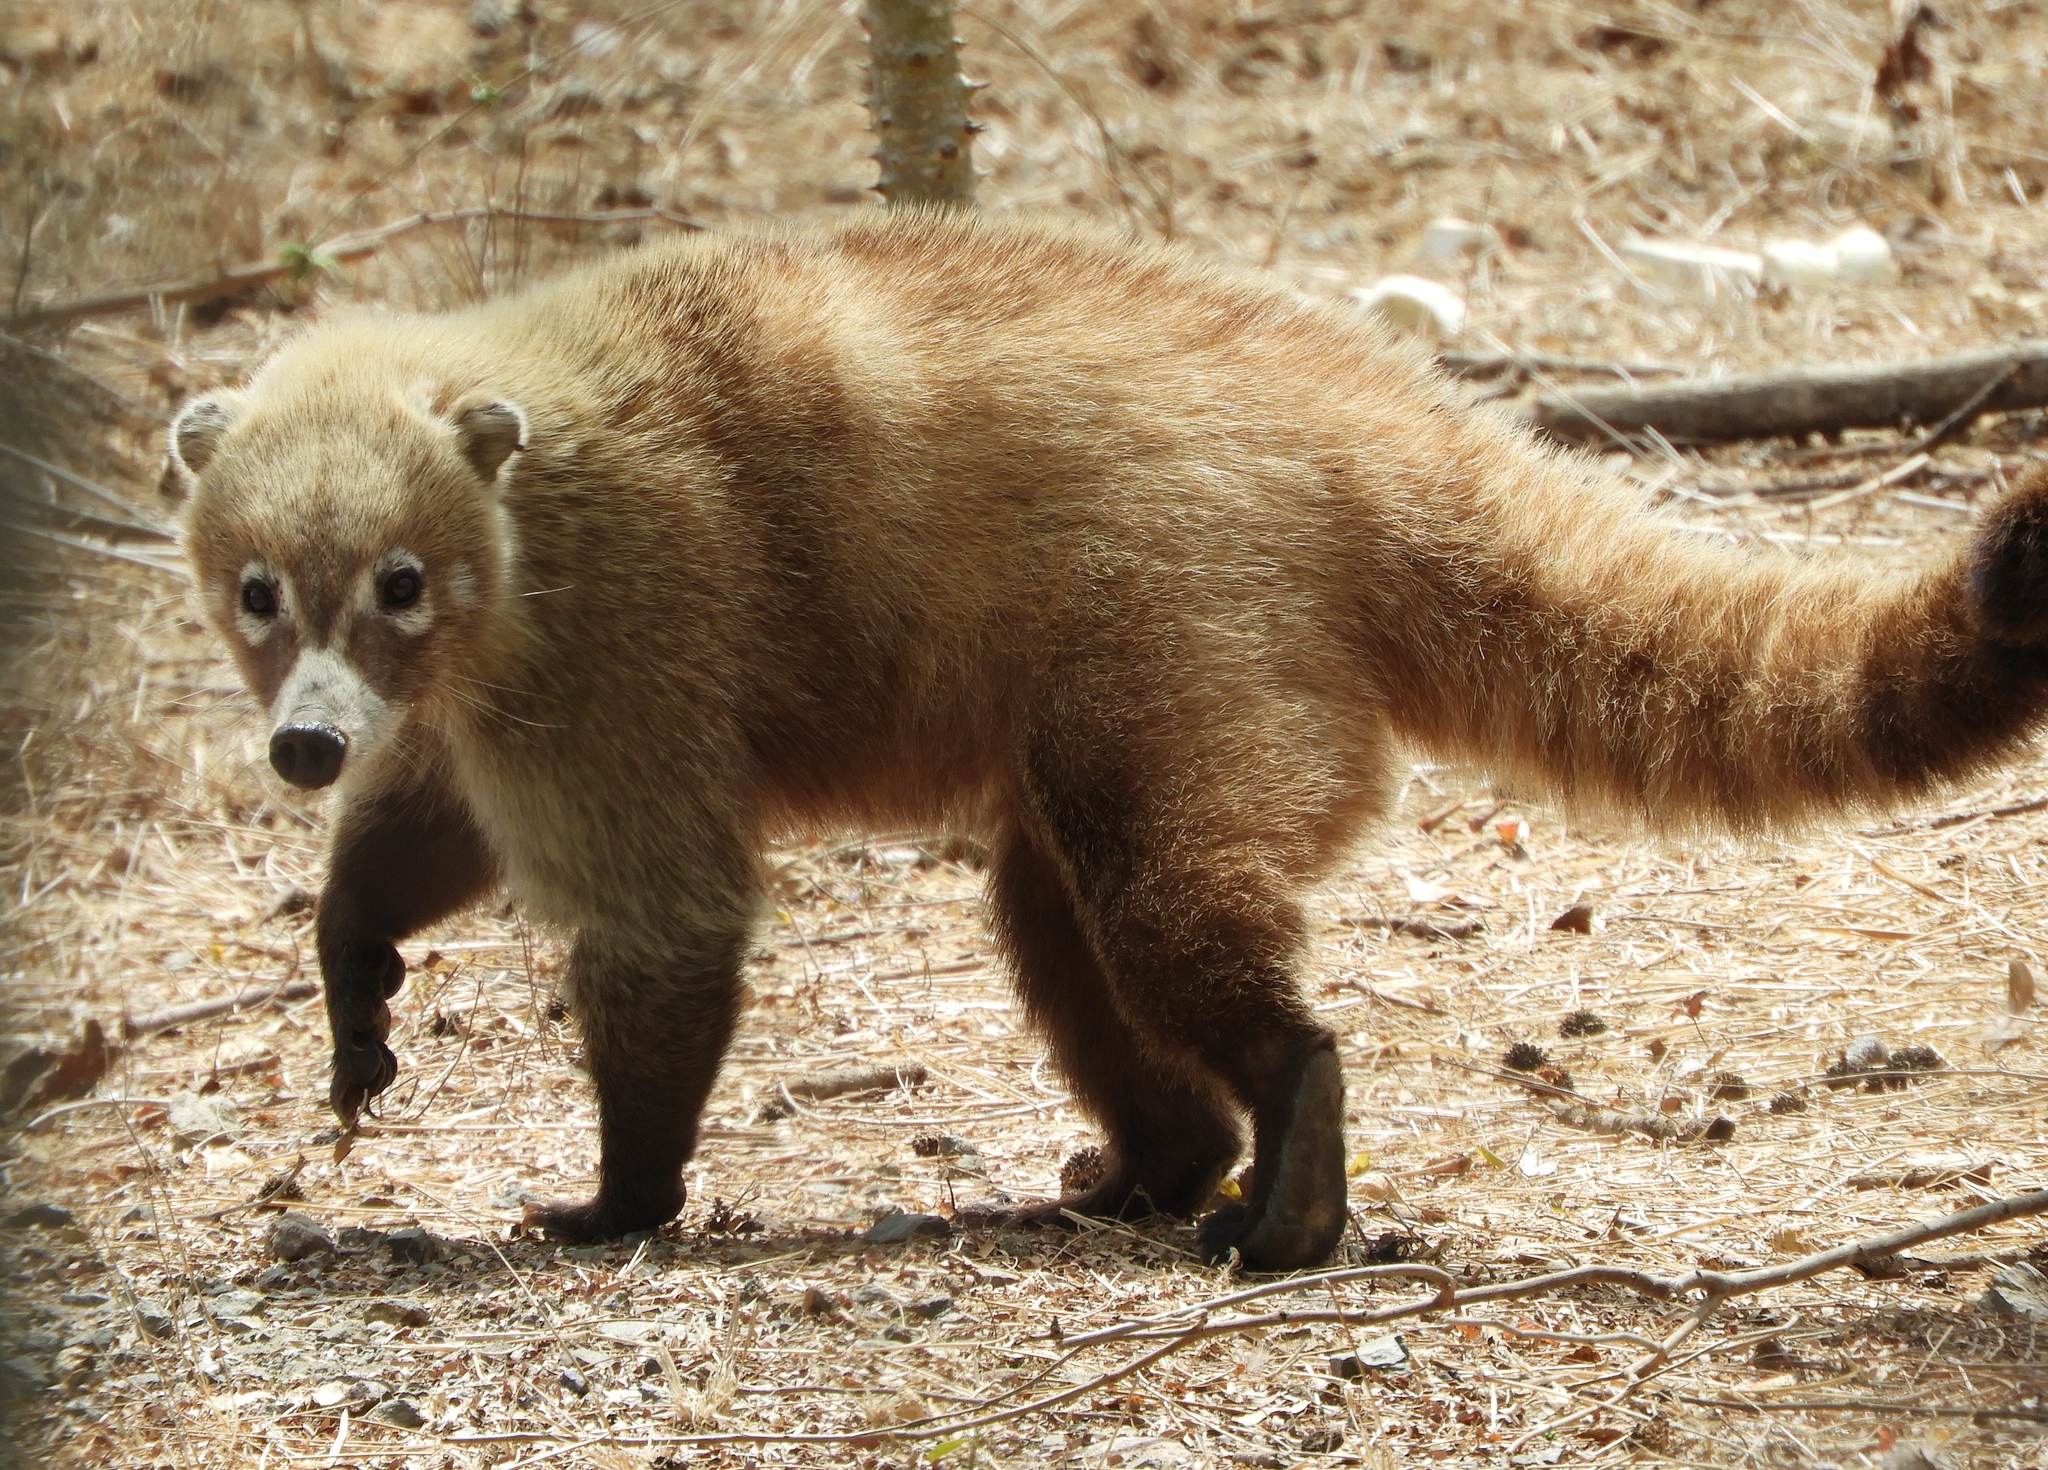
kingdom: Animalia
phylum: Chordata
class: Mammalia
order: Carnivora
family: Procyonidae
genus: Nasua
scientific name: Nasua narica
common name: White-nosed coati
